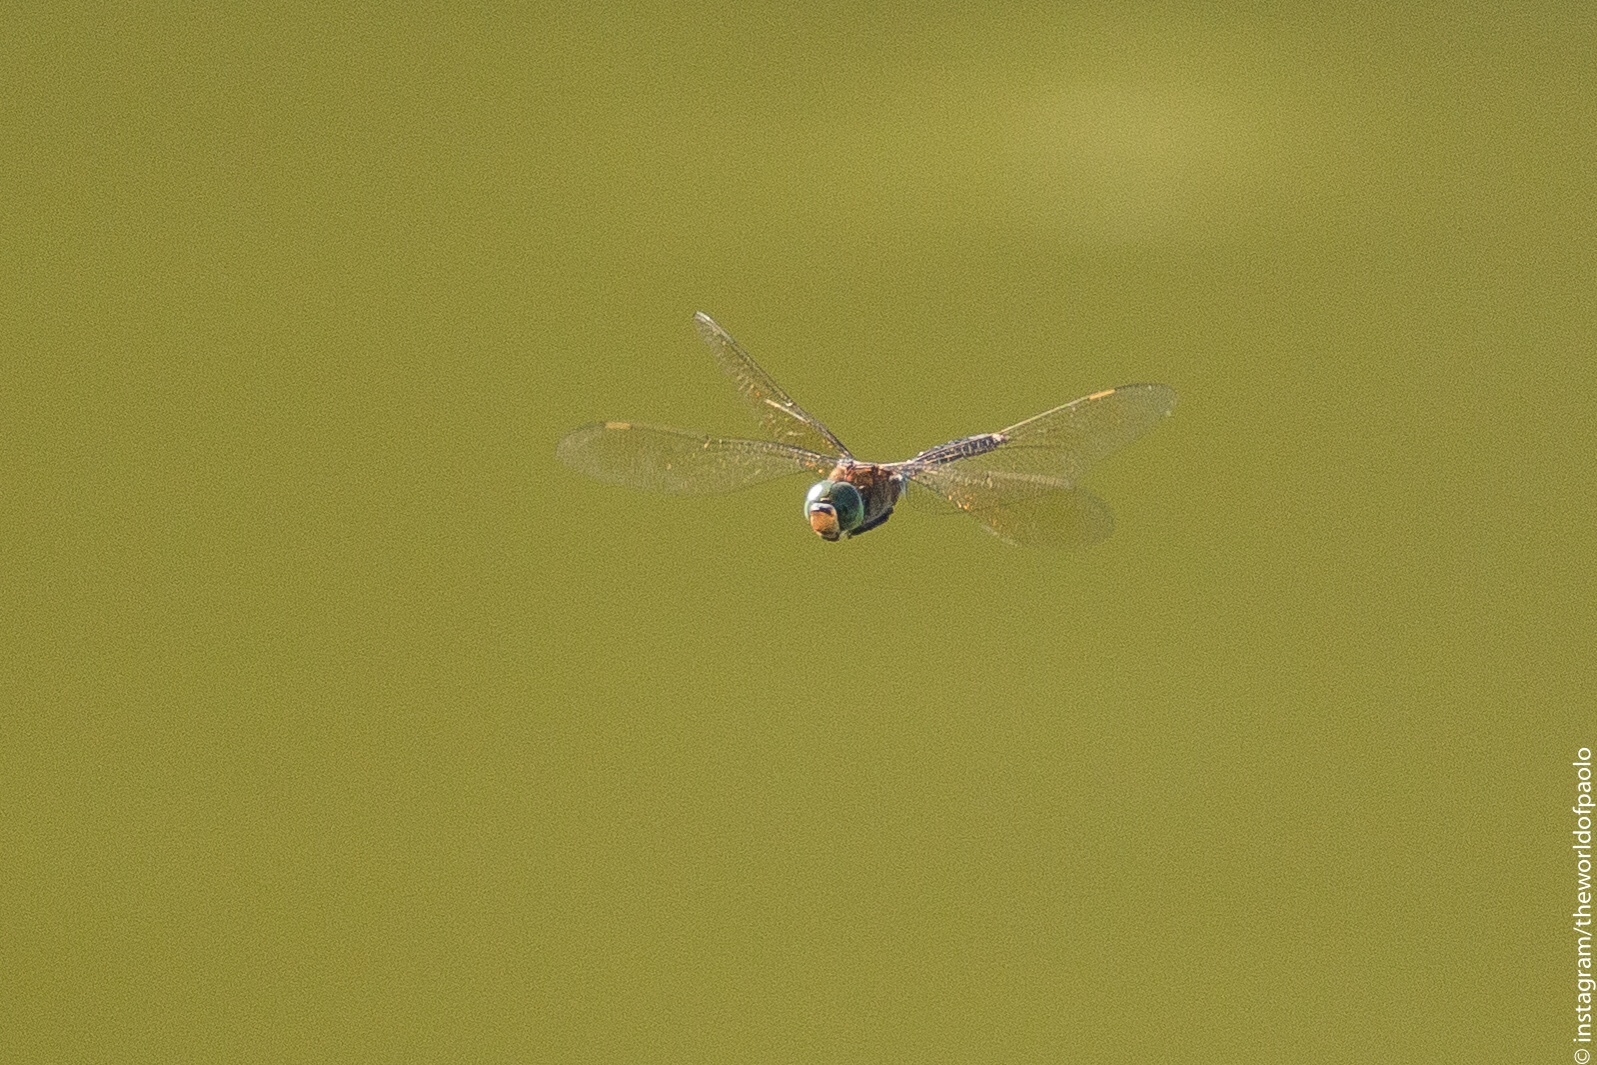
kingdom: Animalia
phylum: Arthropoda
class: Insecta
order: Odonata
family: Aeshnidae
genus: Anax
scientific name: Anax parthenope
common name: Lesser emperor
